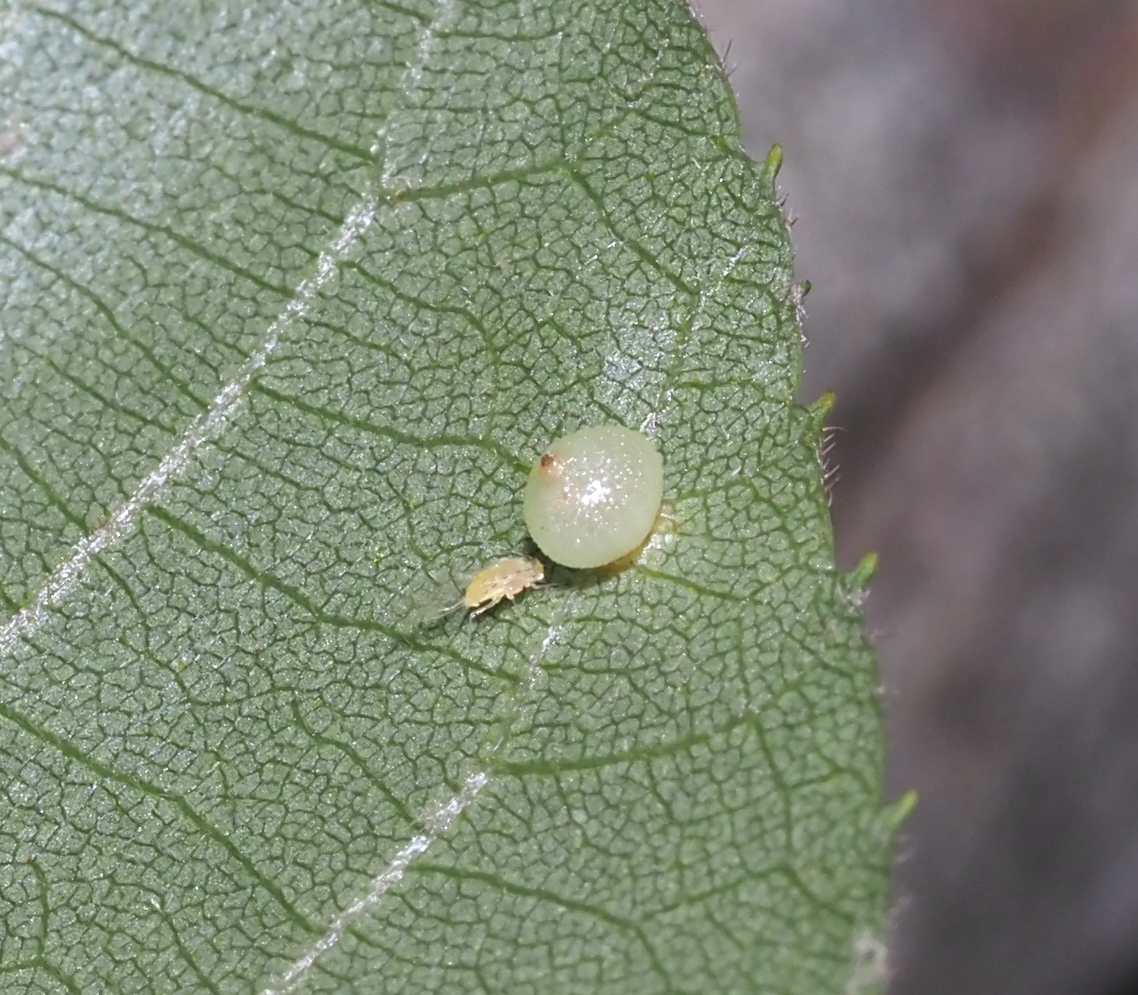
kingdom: Animalia
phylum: Arthropoda
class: Insecta
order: Diptera
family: Cecidomyiidae
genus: Caryomyia
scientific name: Caryomyia caryae
